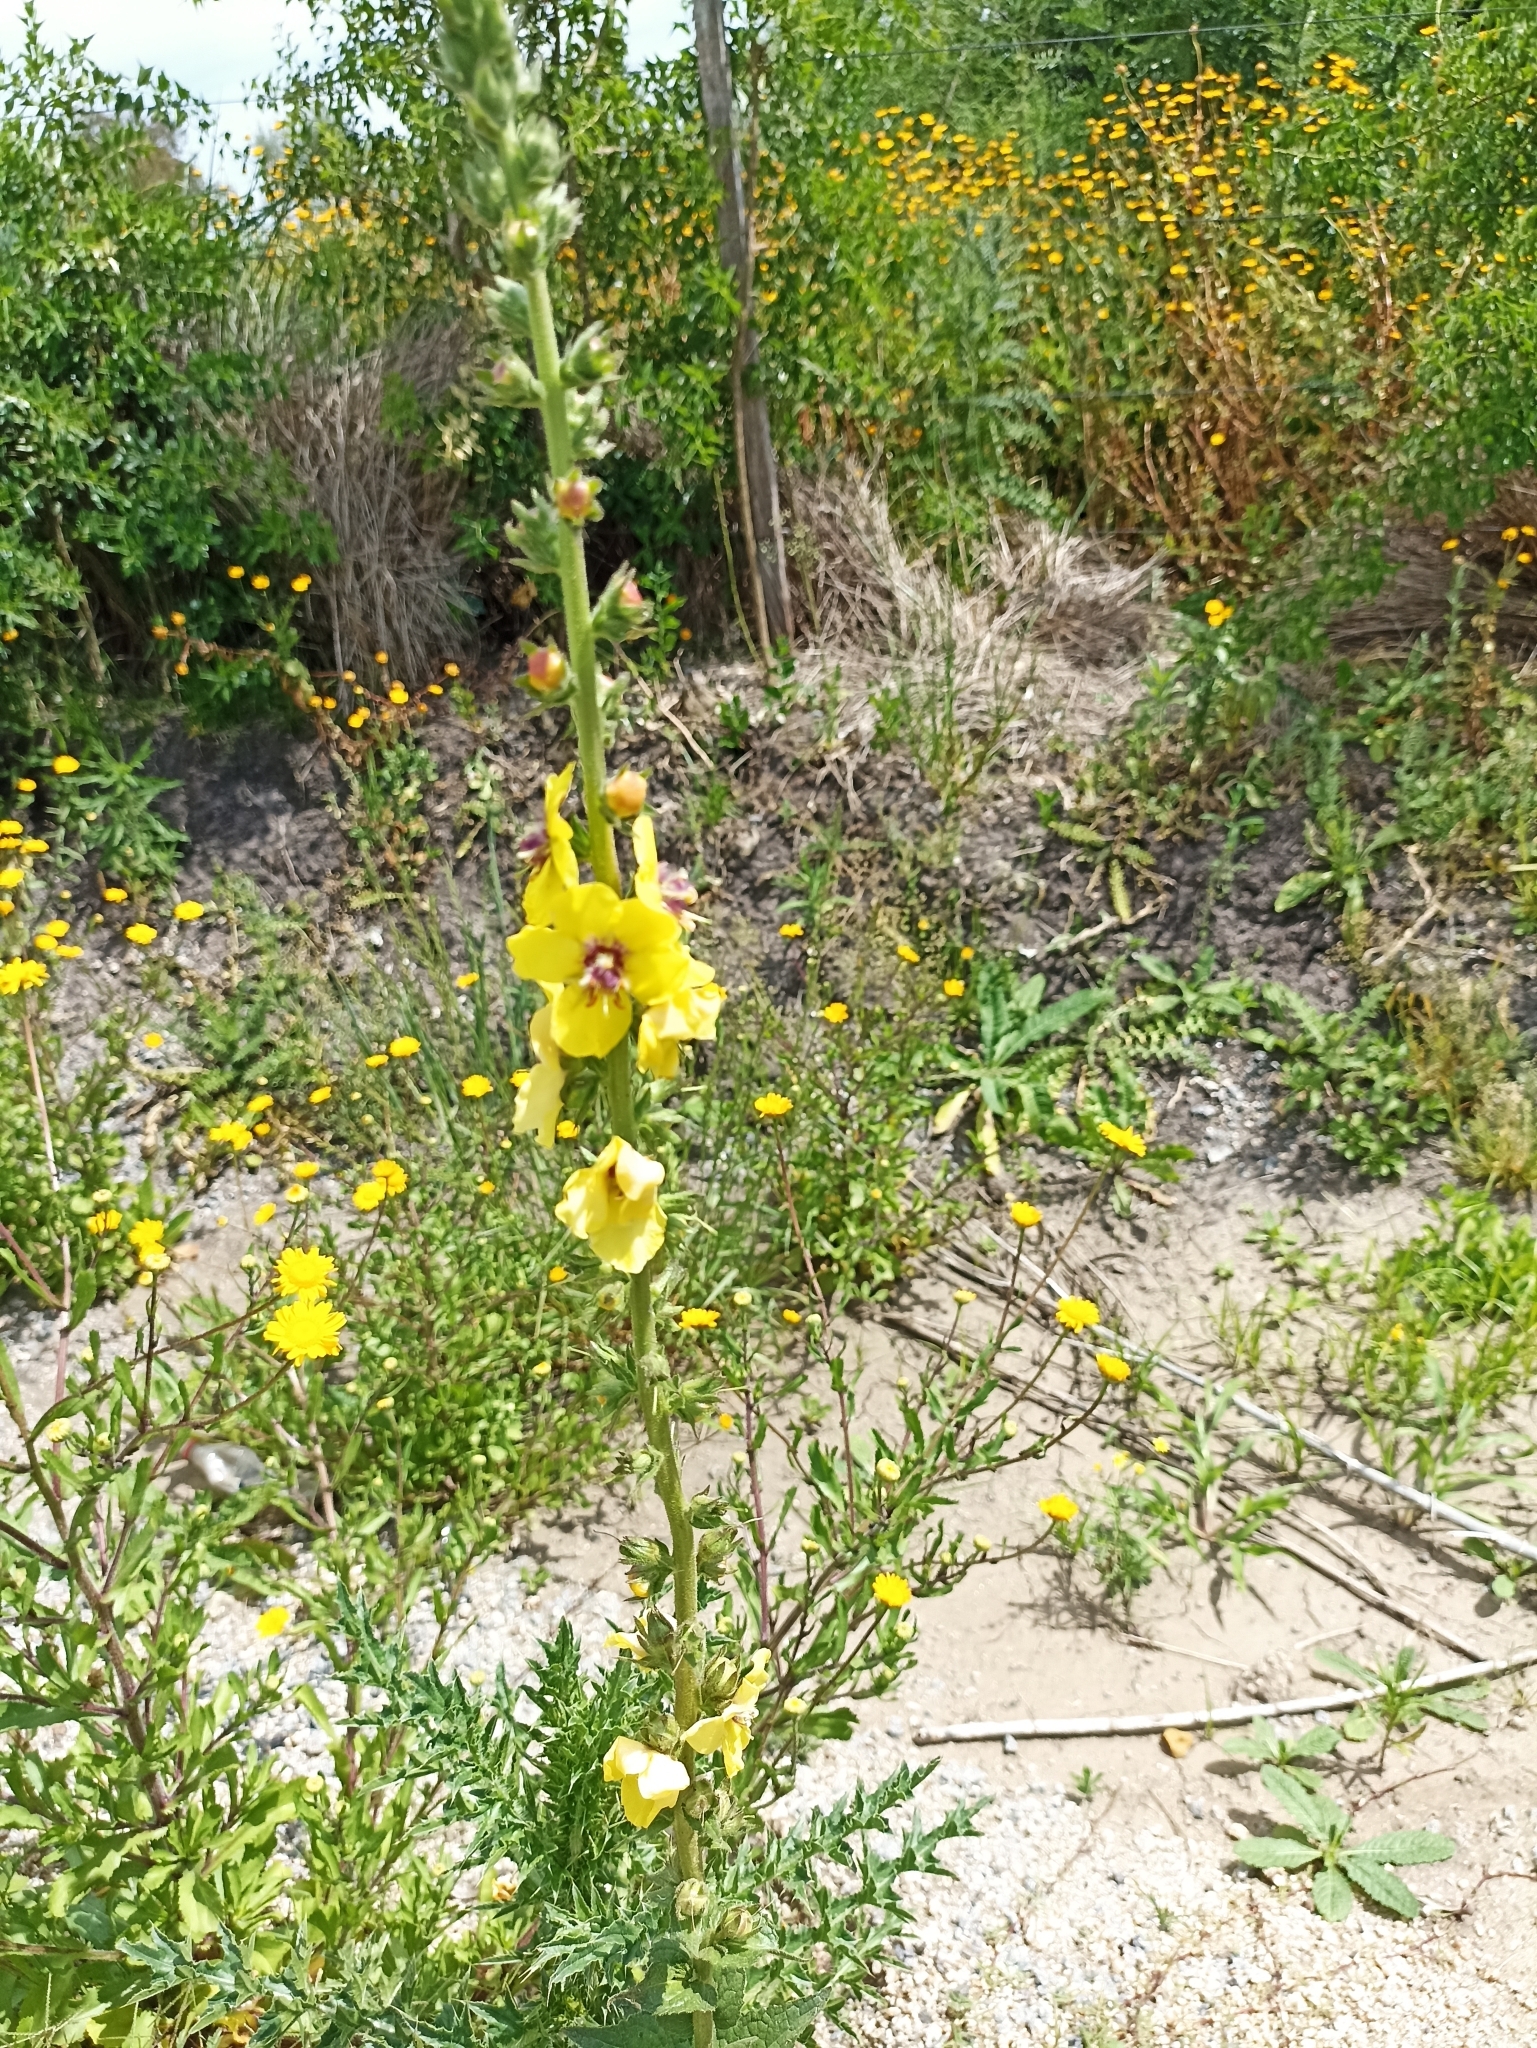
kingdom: Plantae
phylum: Tracheophyta
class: Magnoliopsida
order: Lamiales
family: Scrophulariaceae
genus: Verbascum
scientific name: Verbascum virgatum
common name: Twiggy mullein
